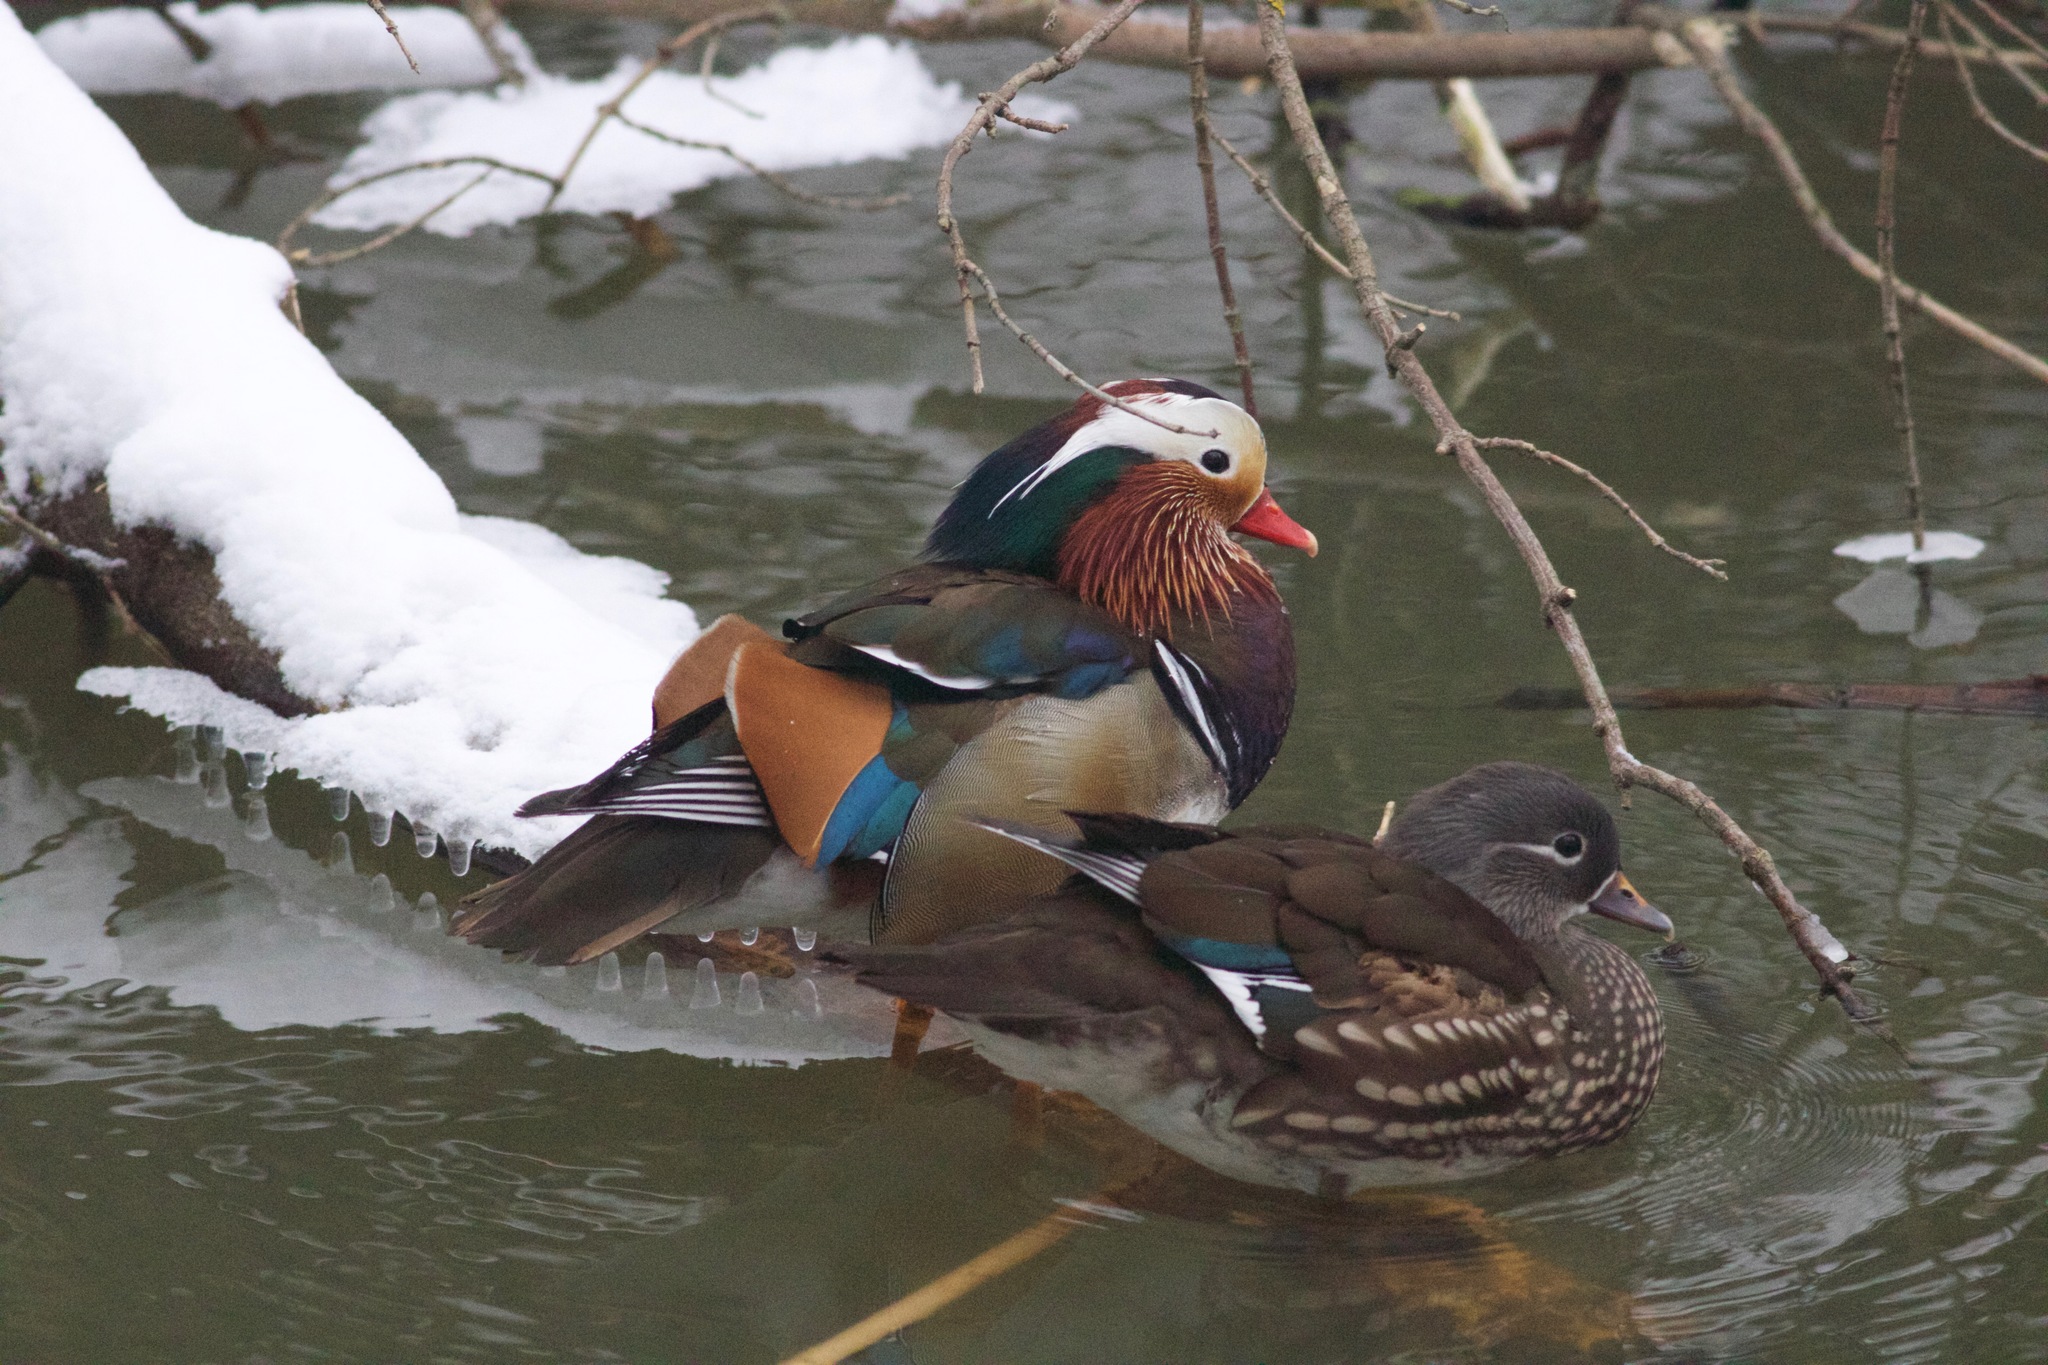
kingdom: Animalia
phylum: Chordata
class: Aves
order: Anseriformes
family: Anatidae
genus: Aix
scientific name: Aix galericulata
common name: Mandarin duck
